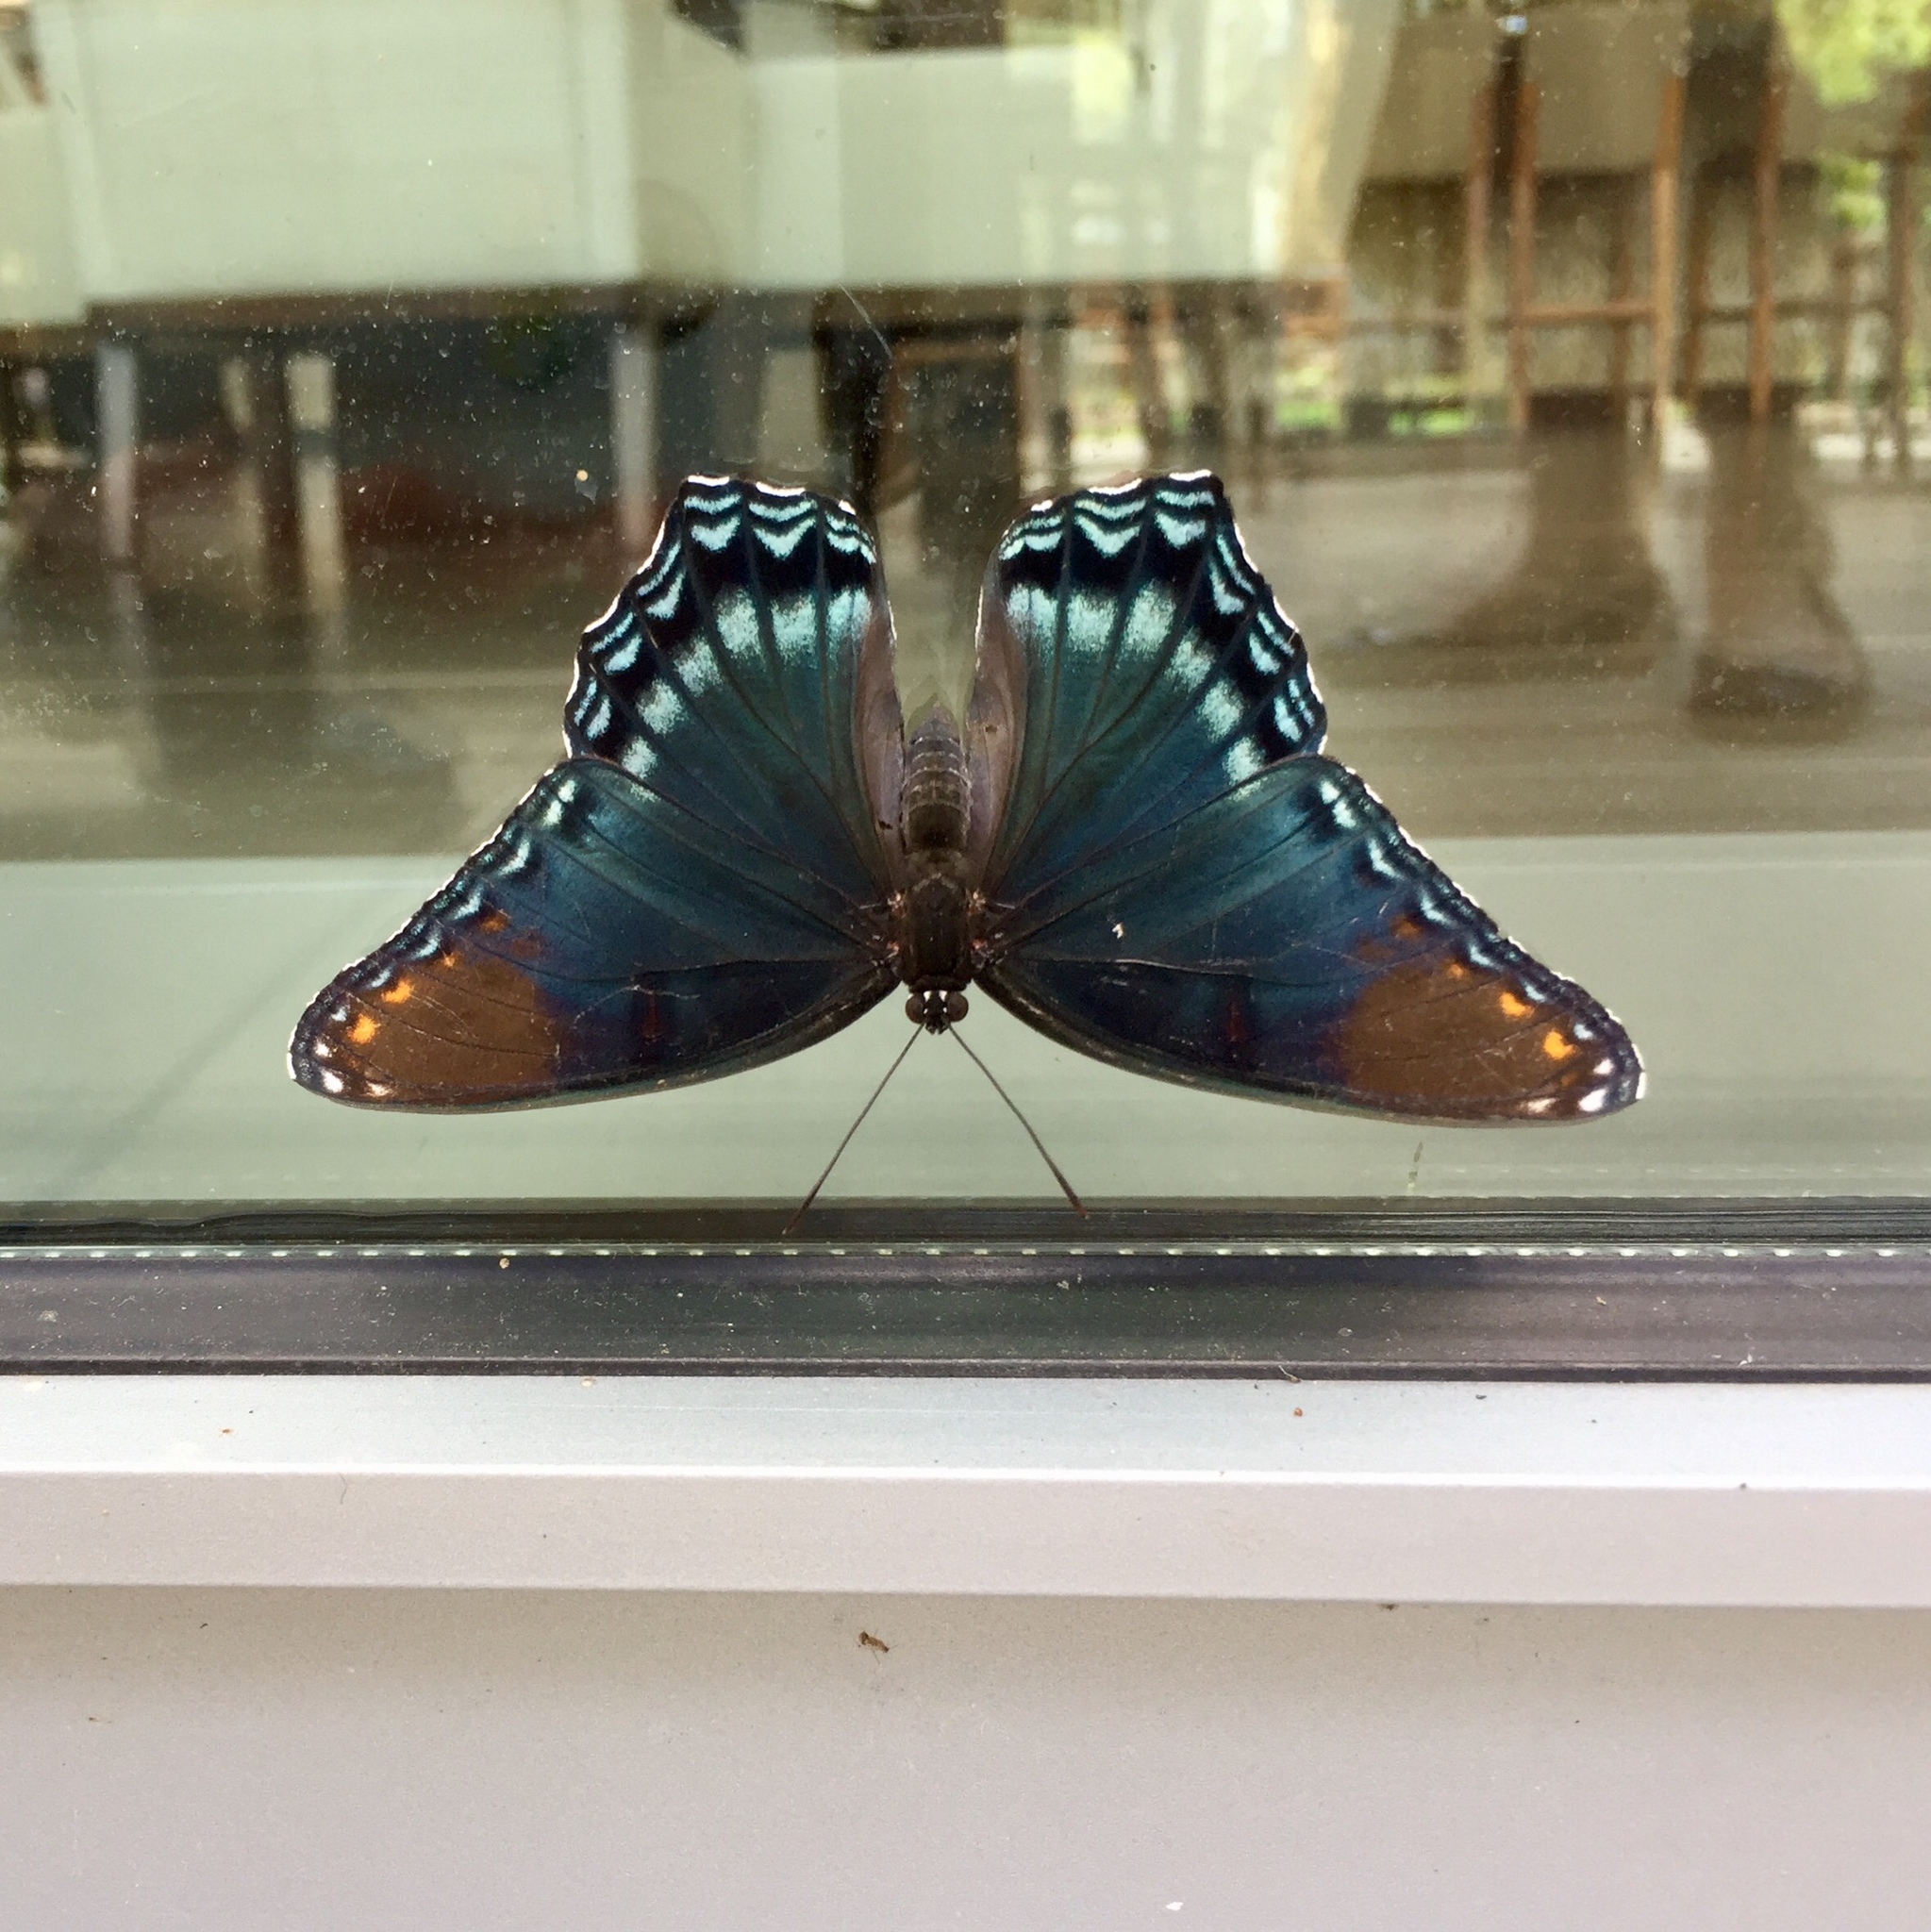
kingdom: Animalia
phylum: Arthropoda
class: Insecta
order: Lepidoptera
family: Nymphalidae
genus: Limenitis
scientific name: Limenitis astyanax
